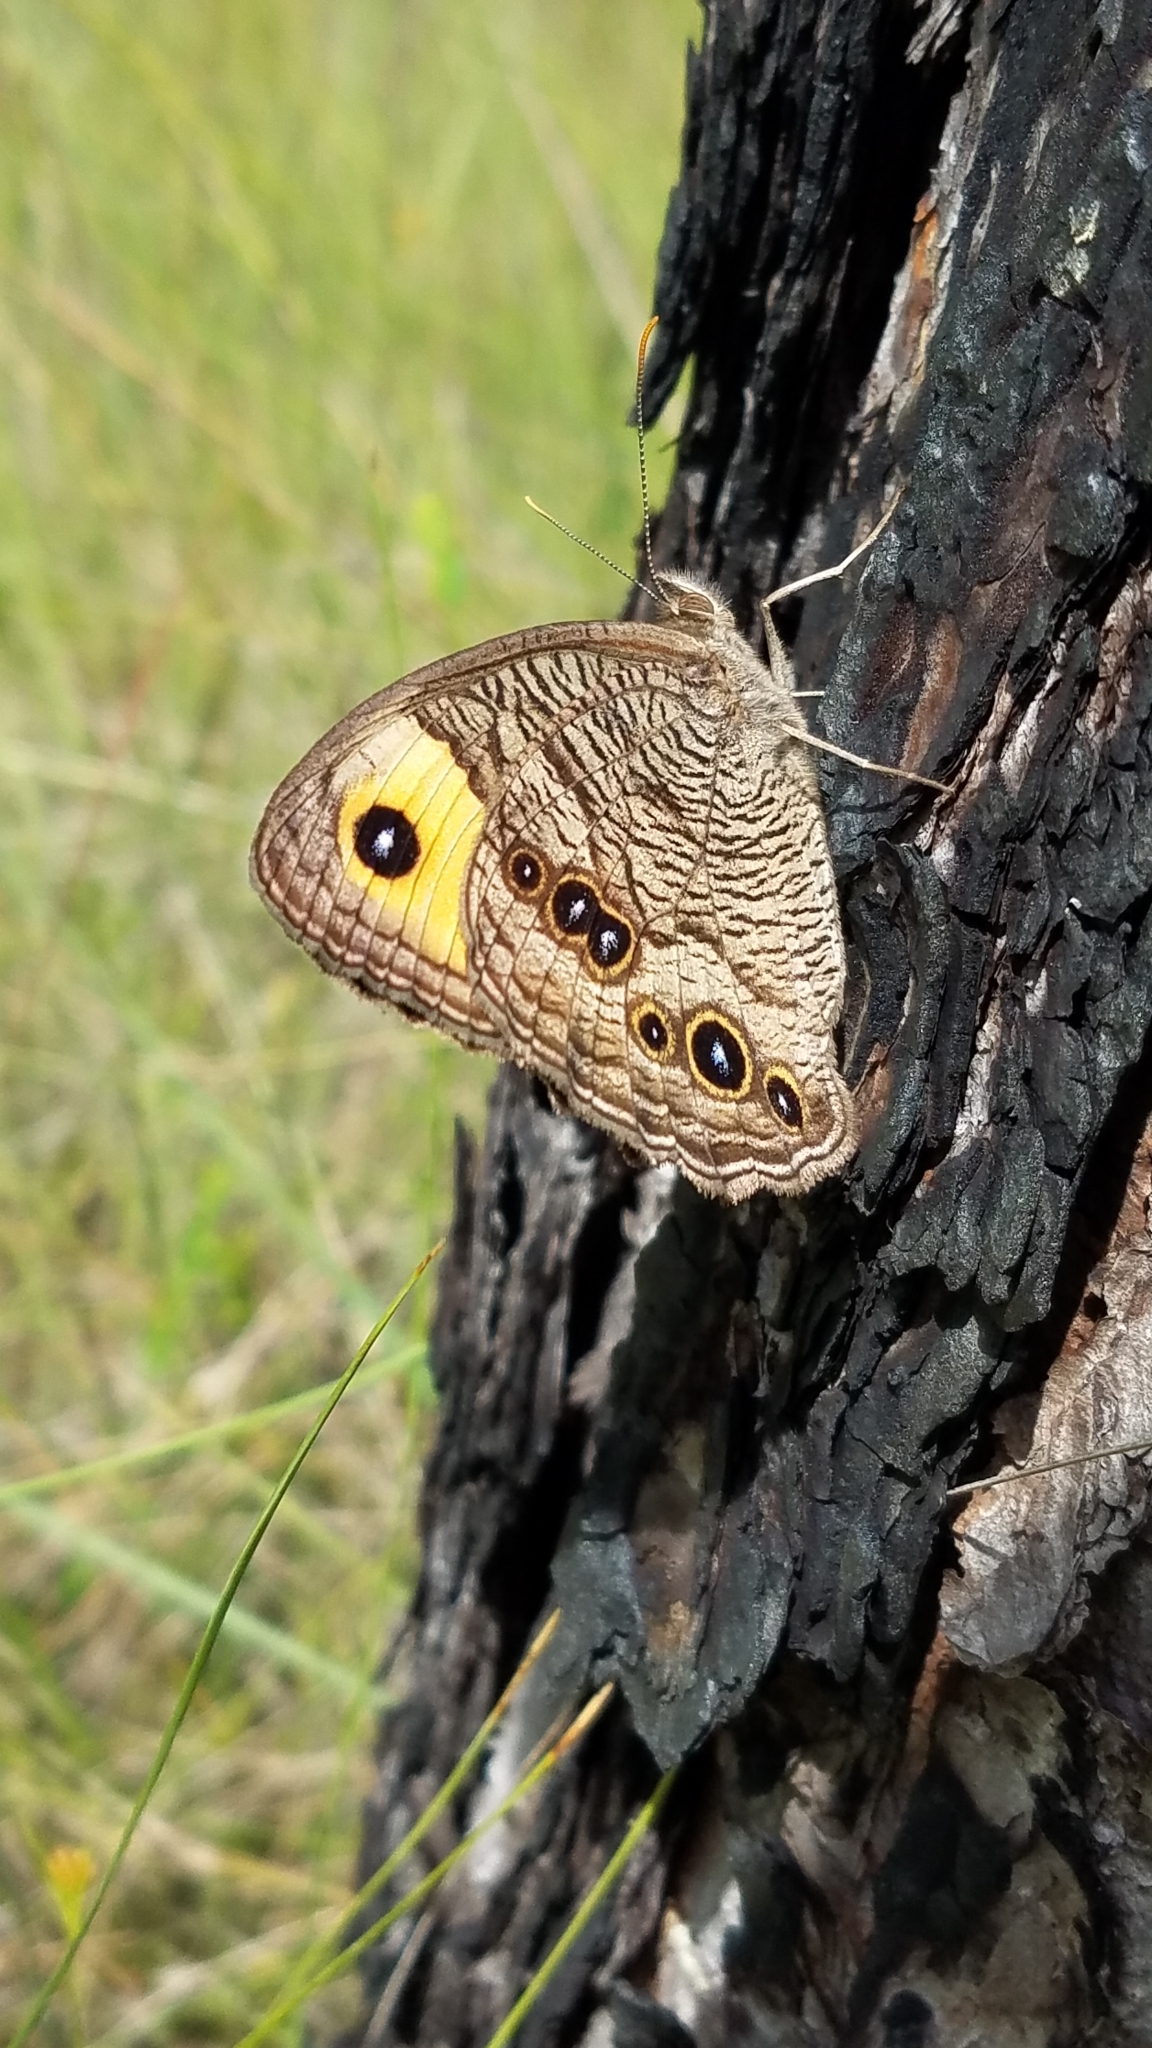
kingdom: Animalia
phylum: Arthropoda
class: Insecta
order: Lepidoptera
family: Nymphalidae
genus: Cercyonis
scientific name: Cercyonis pegala
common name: Common wood-nymph
